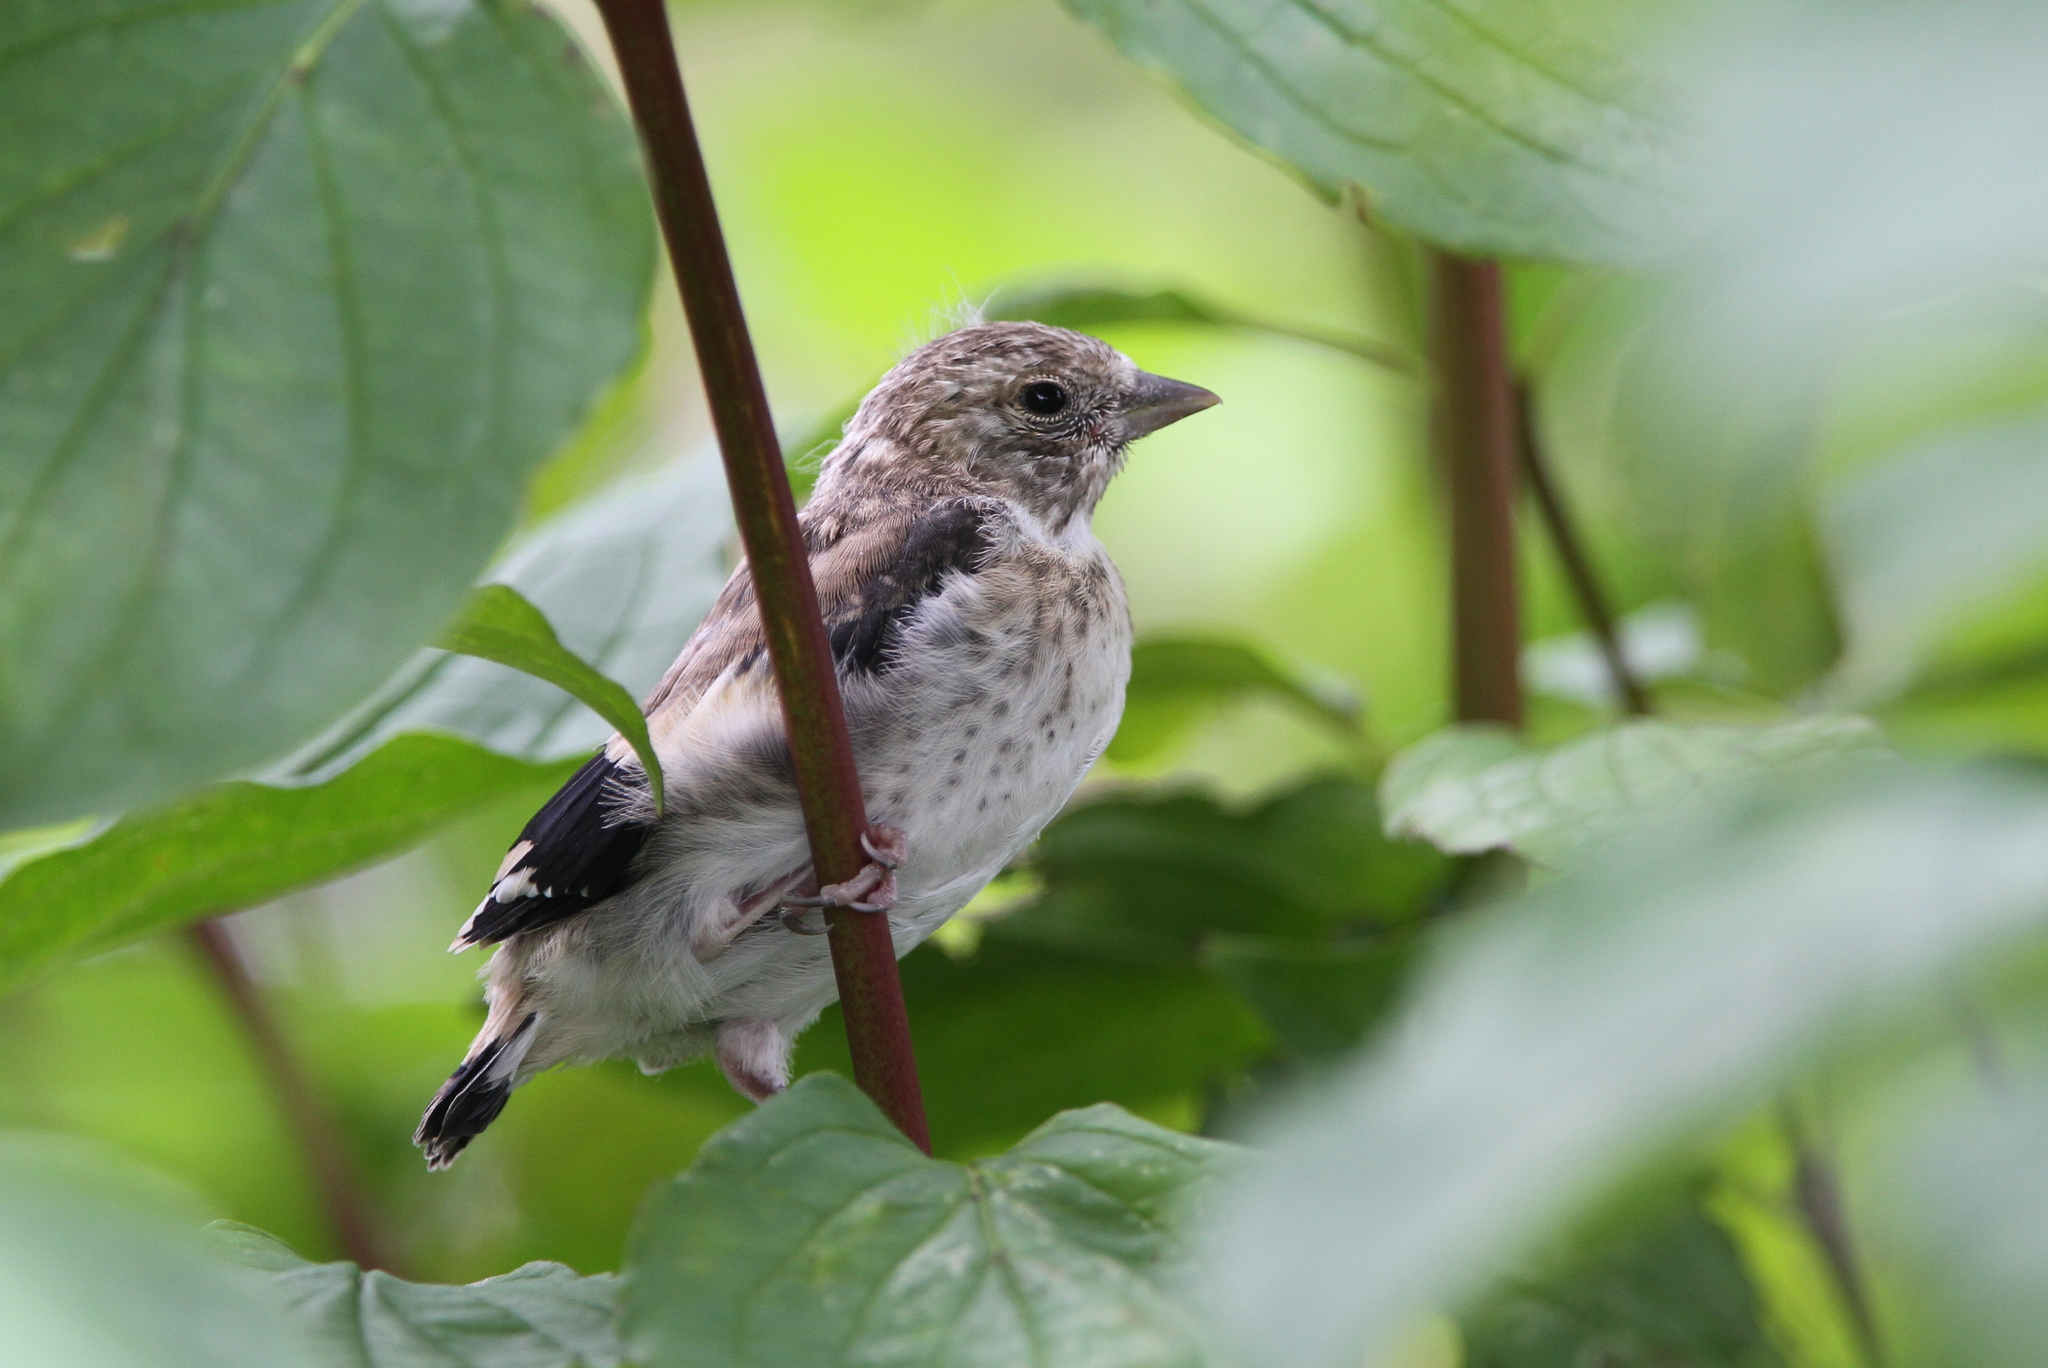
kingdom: Animalia
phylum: Chordata
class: Aves
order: Passeriformes
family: Fringillidae
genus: Carduelis
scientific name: Carduelis carduelis
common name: European goldfinch
